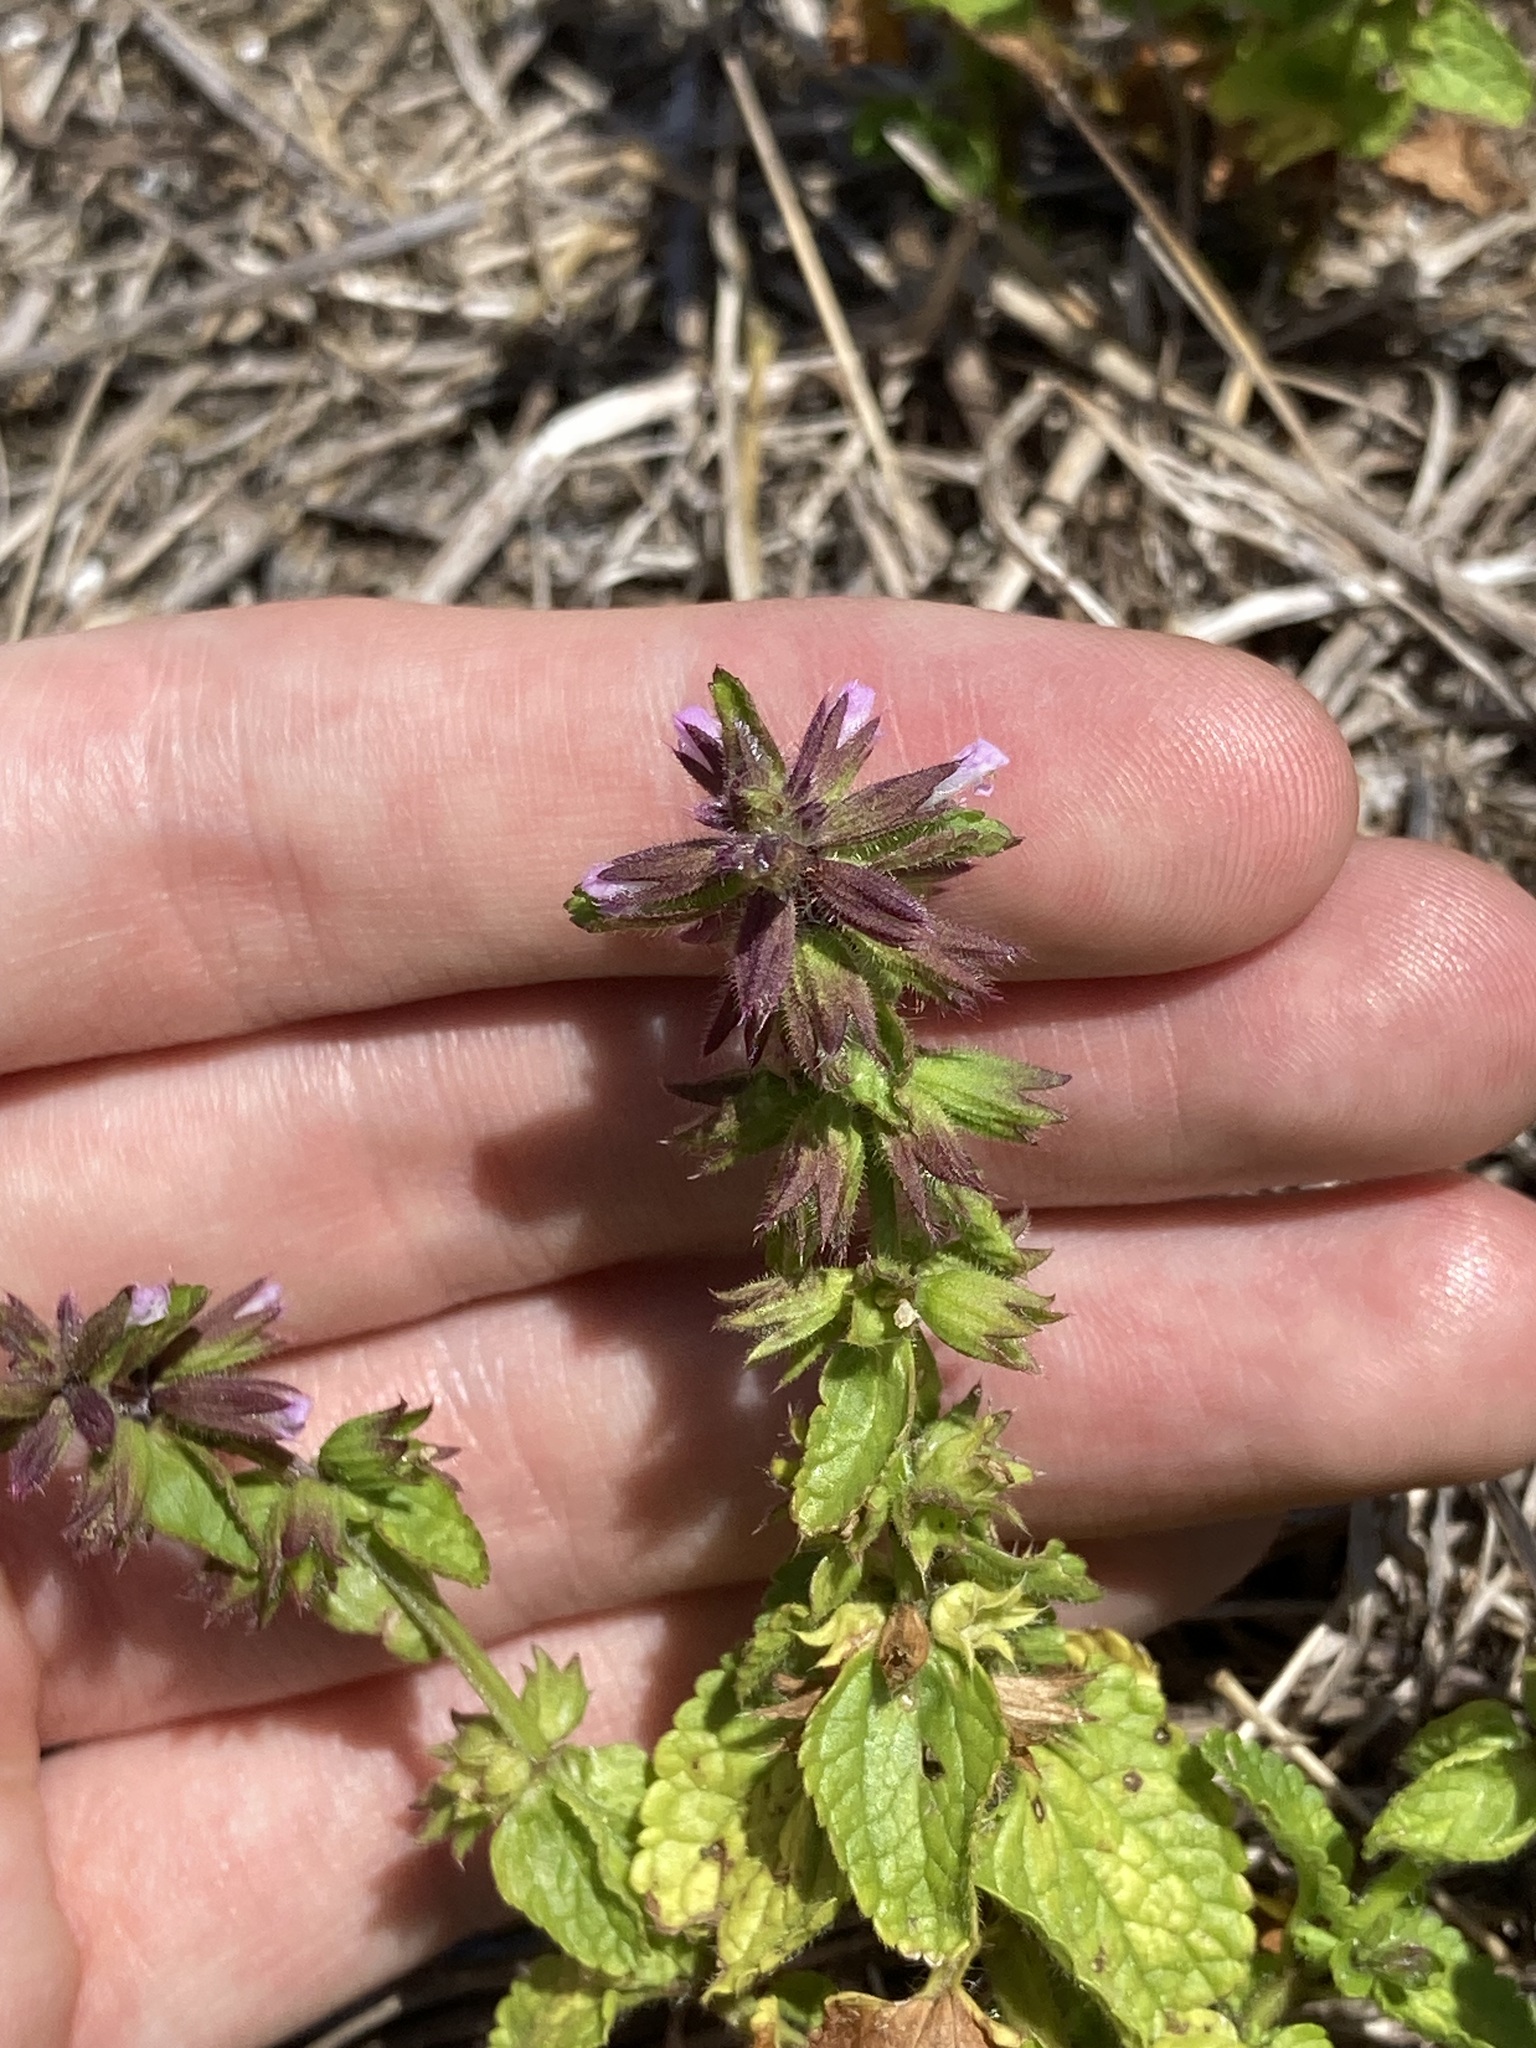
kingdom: Plantae
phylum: Tracheophyta
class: Magnoliopsida
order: Lamiales
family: Lamiaceae
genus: Stachys
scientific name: Stachys arvensis
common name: Field woundwort
